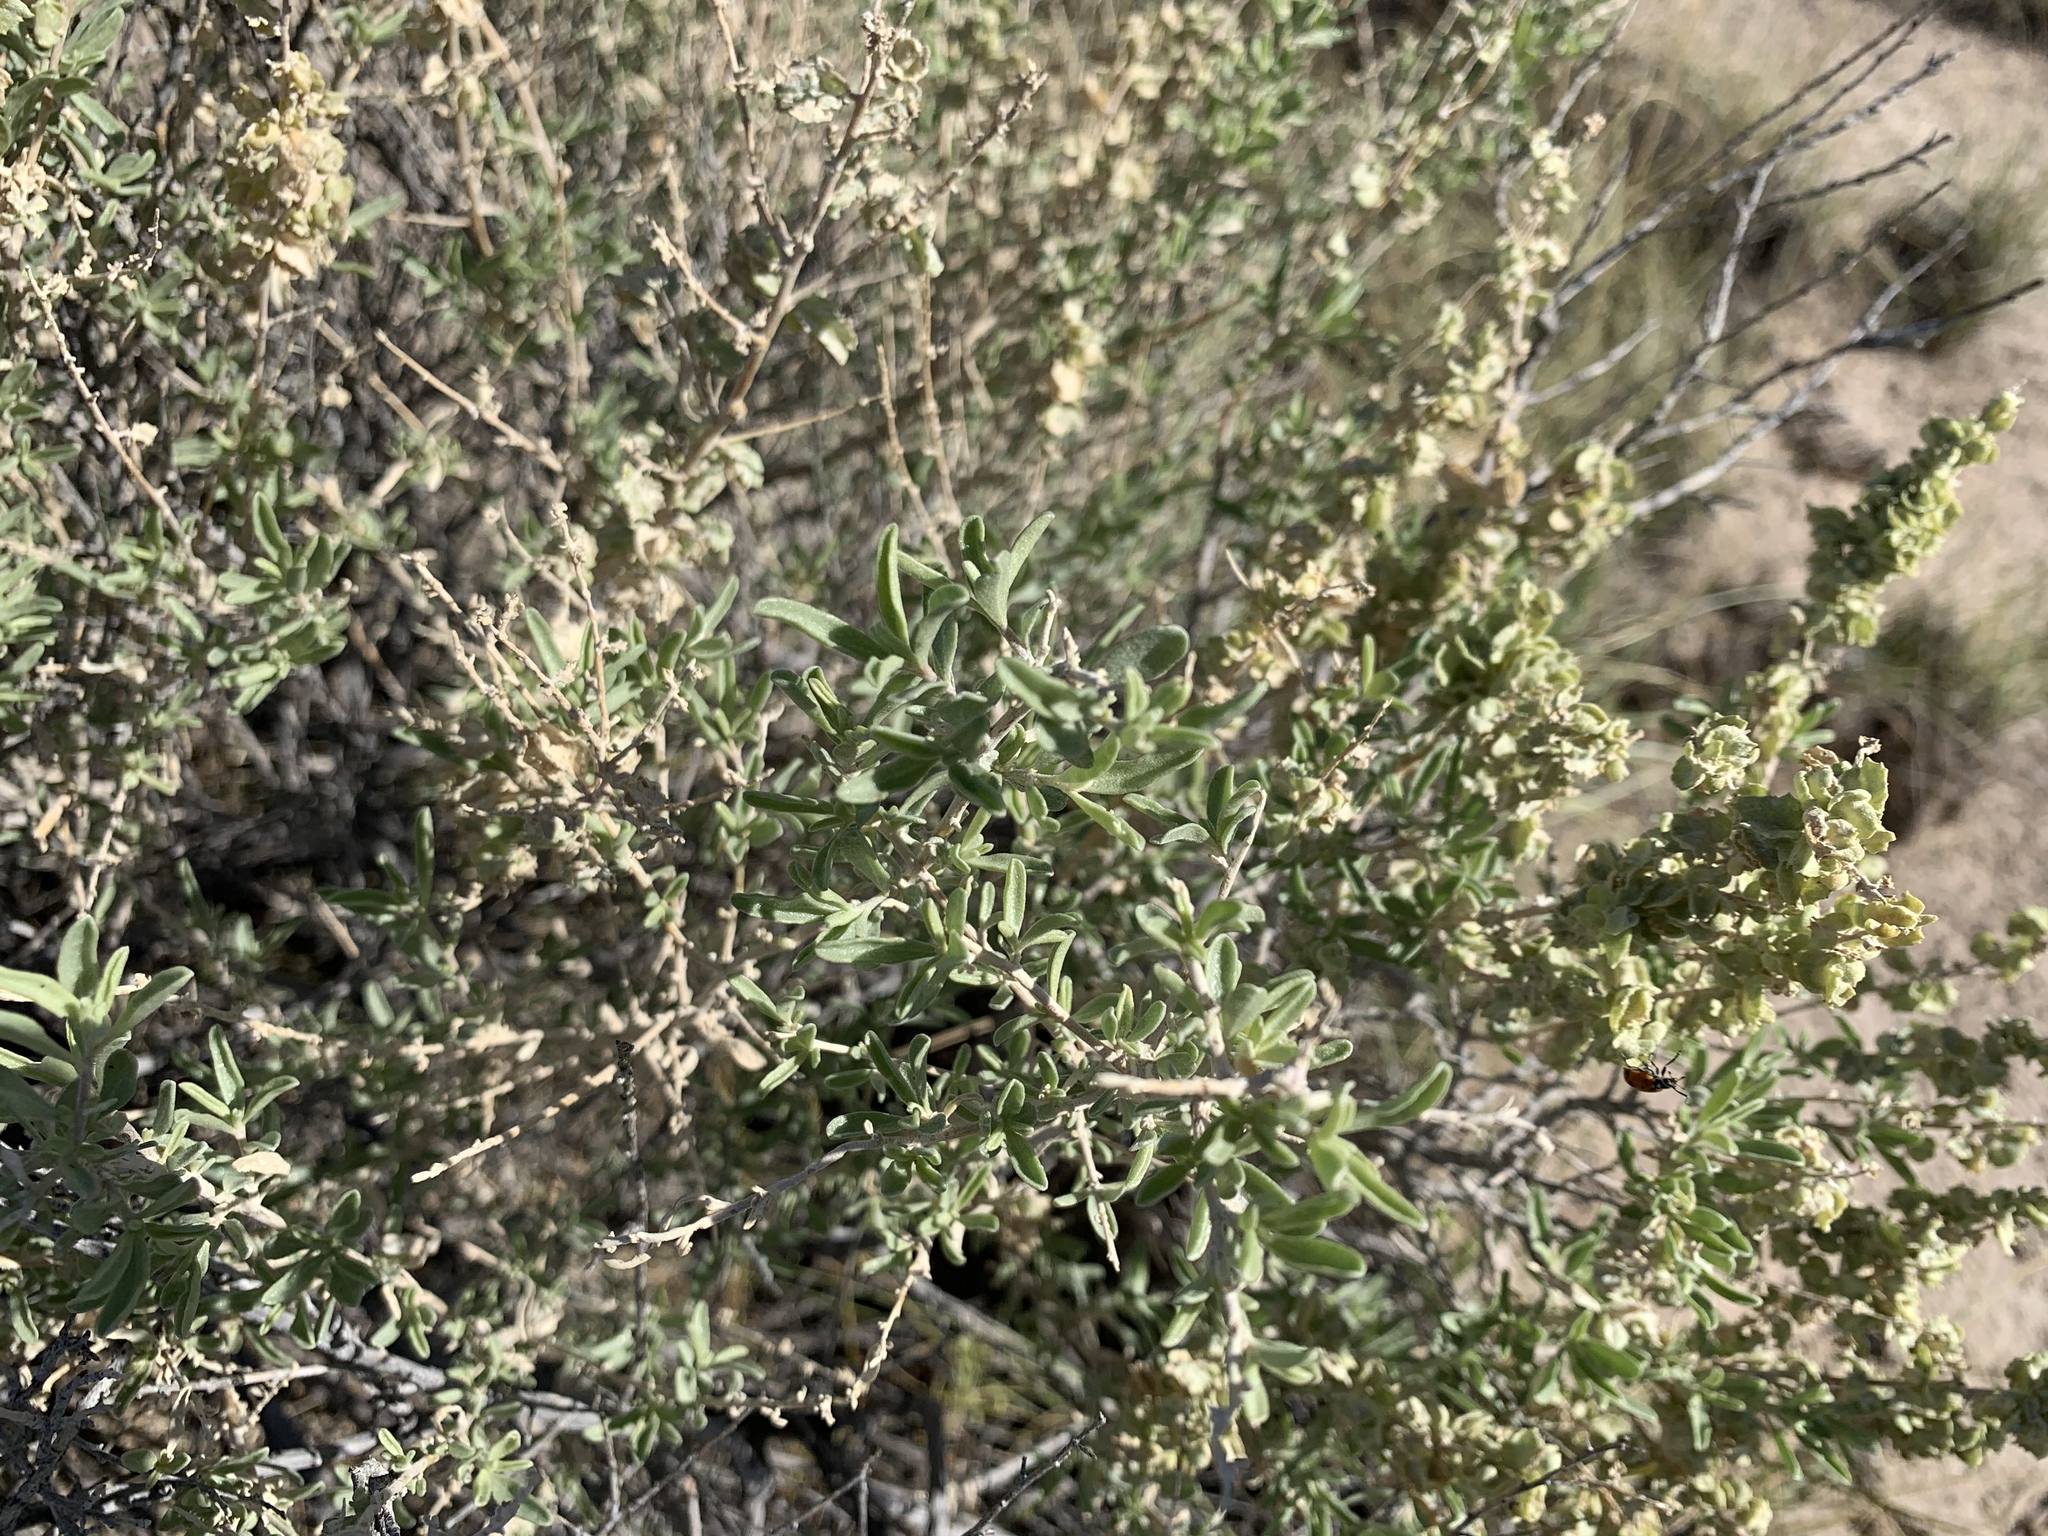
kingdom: Plantae
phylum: Tracheophyta
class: Magnoliopsida
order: Caryophyllales
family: Amaranthaceae
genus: Atriplex
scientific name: Atriplex canescens
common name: Four-wing saltbush
